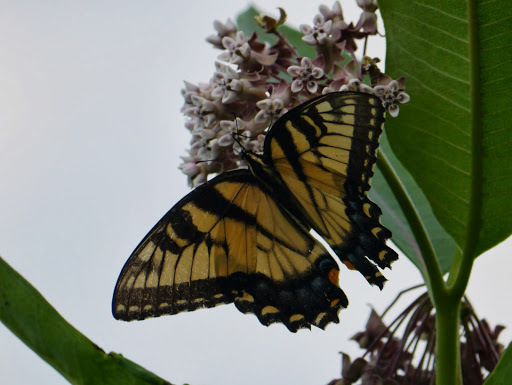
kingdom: Animalia
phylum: Arthropoda
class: Insecta
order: Lepidoptera
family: Papilionidae
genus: Papilio
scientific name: Papilio glaucus
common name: Tiger swallowtail
